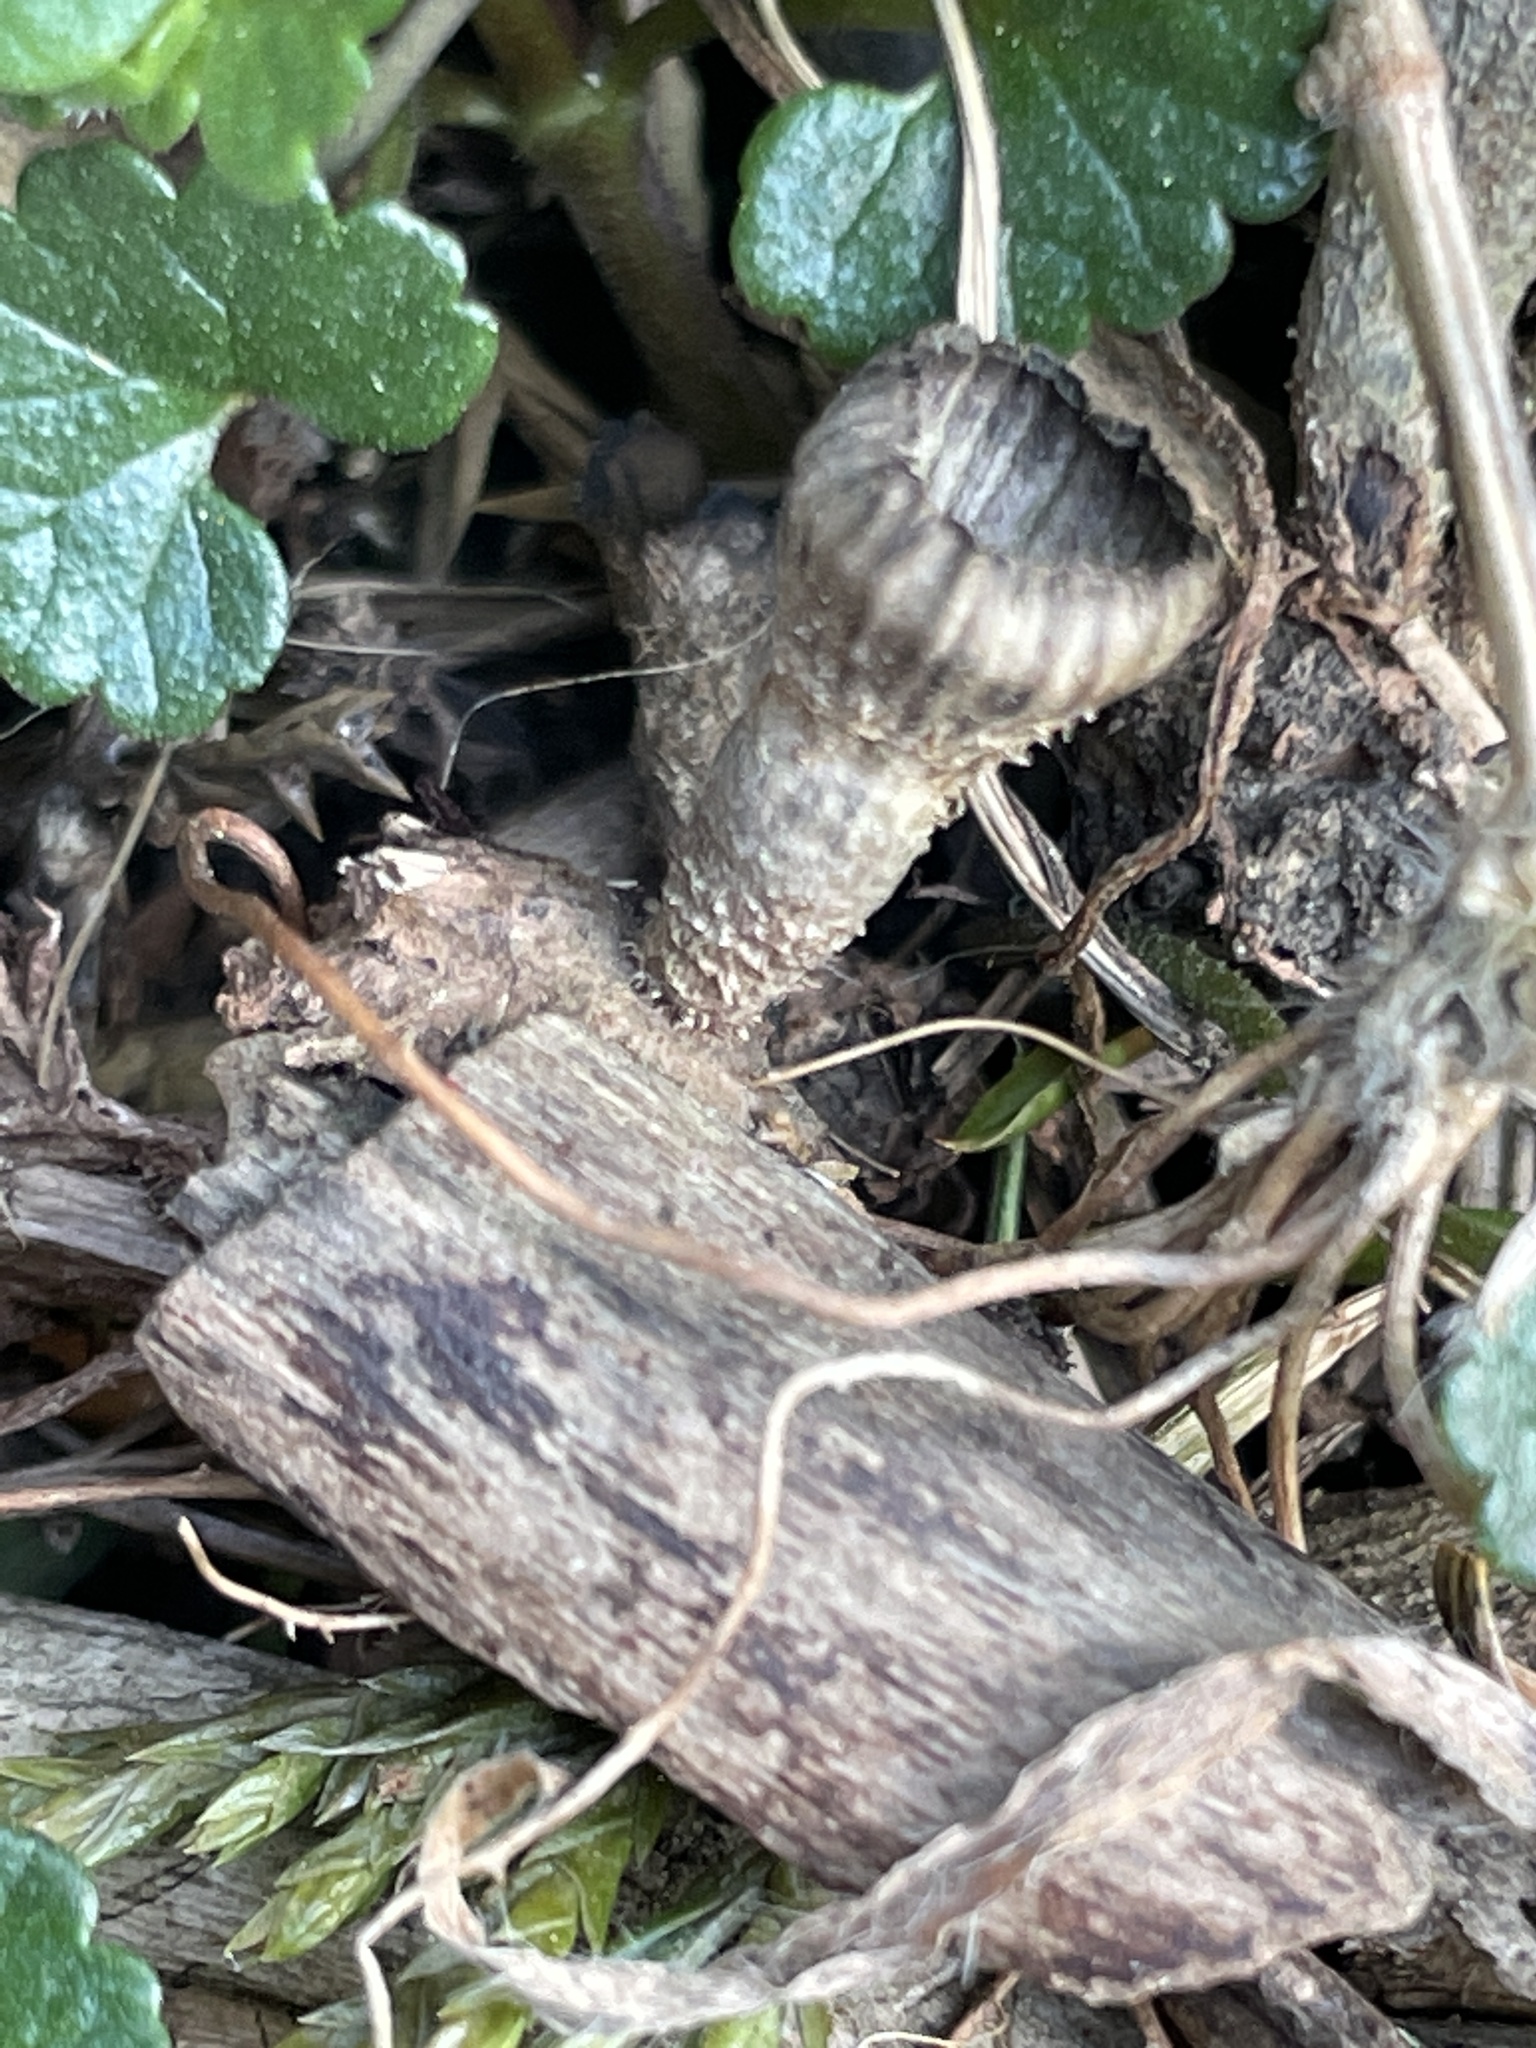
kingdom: Fungi
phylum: Basidiomycota
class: Agaricomycetes
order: Agaricales
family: Agaricaceae
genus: Cyathus
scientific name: Cyathus striatus
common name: Fluted bird's nest
